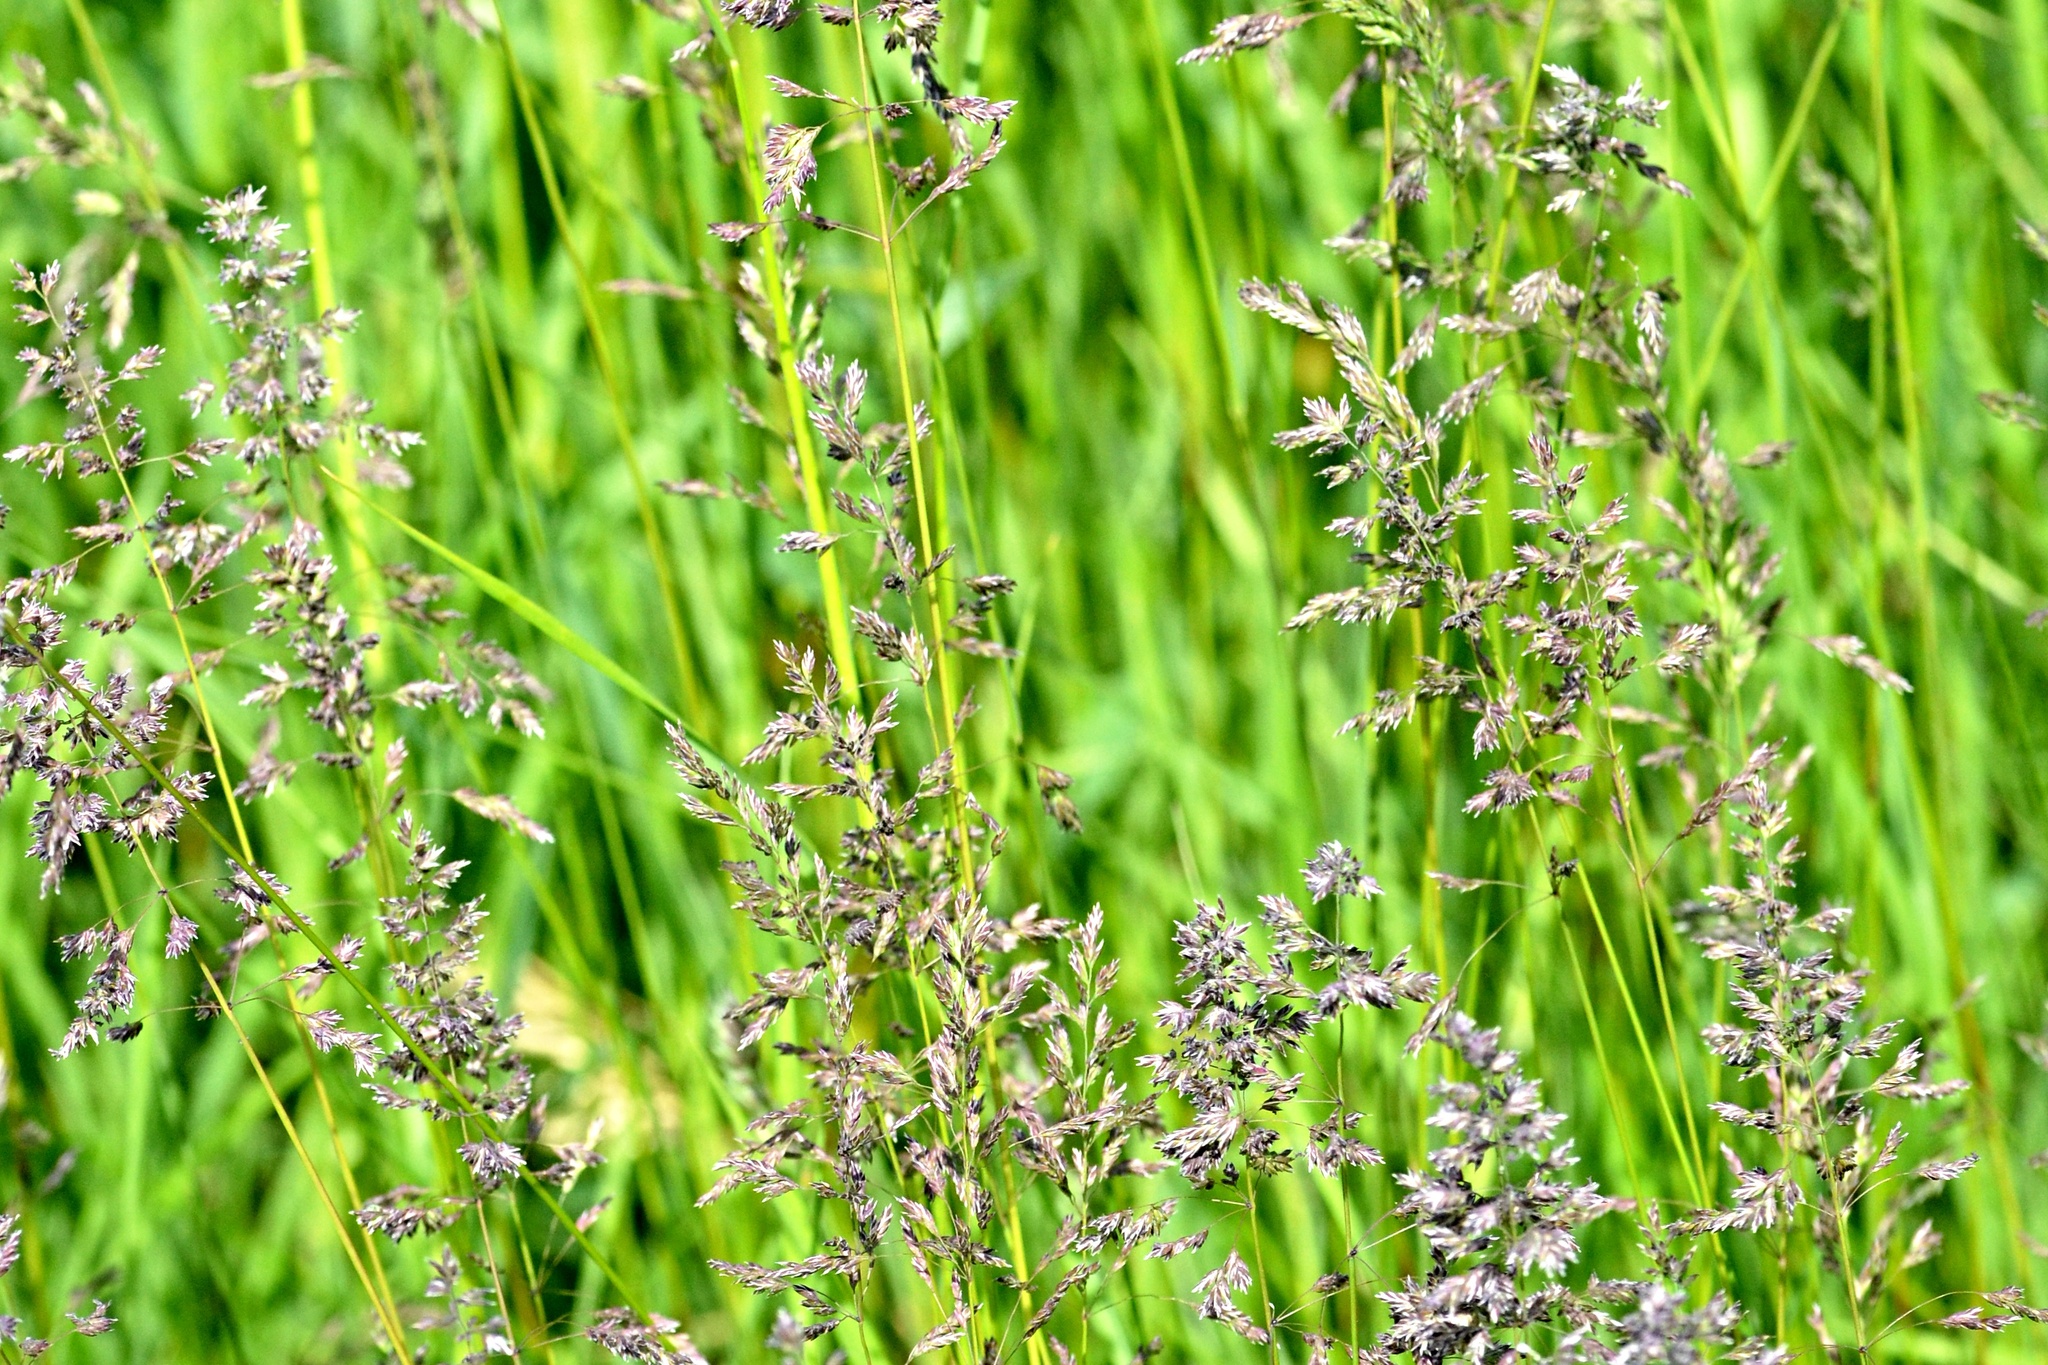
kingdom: Plantae
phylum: Tracheophyta
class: Liliopsida
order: Poales
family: Poaceae
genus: Poa
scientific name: Poa pratensis
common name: Kentucky bluegrass
